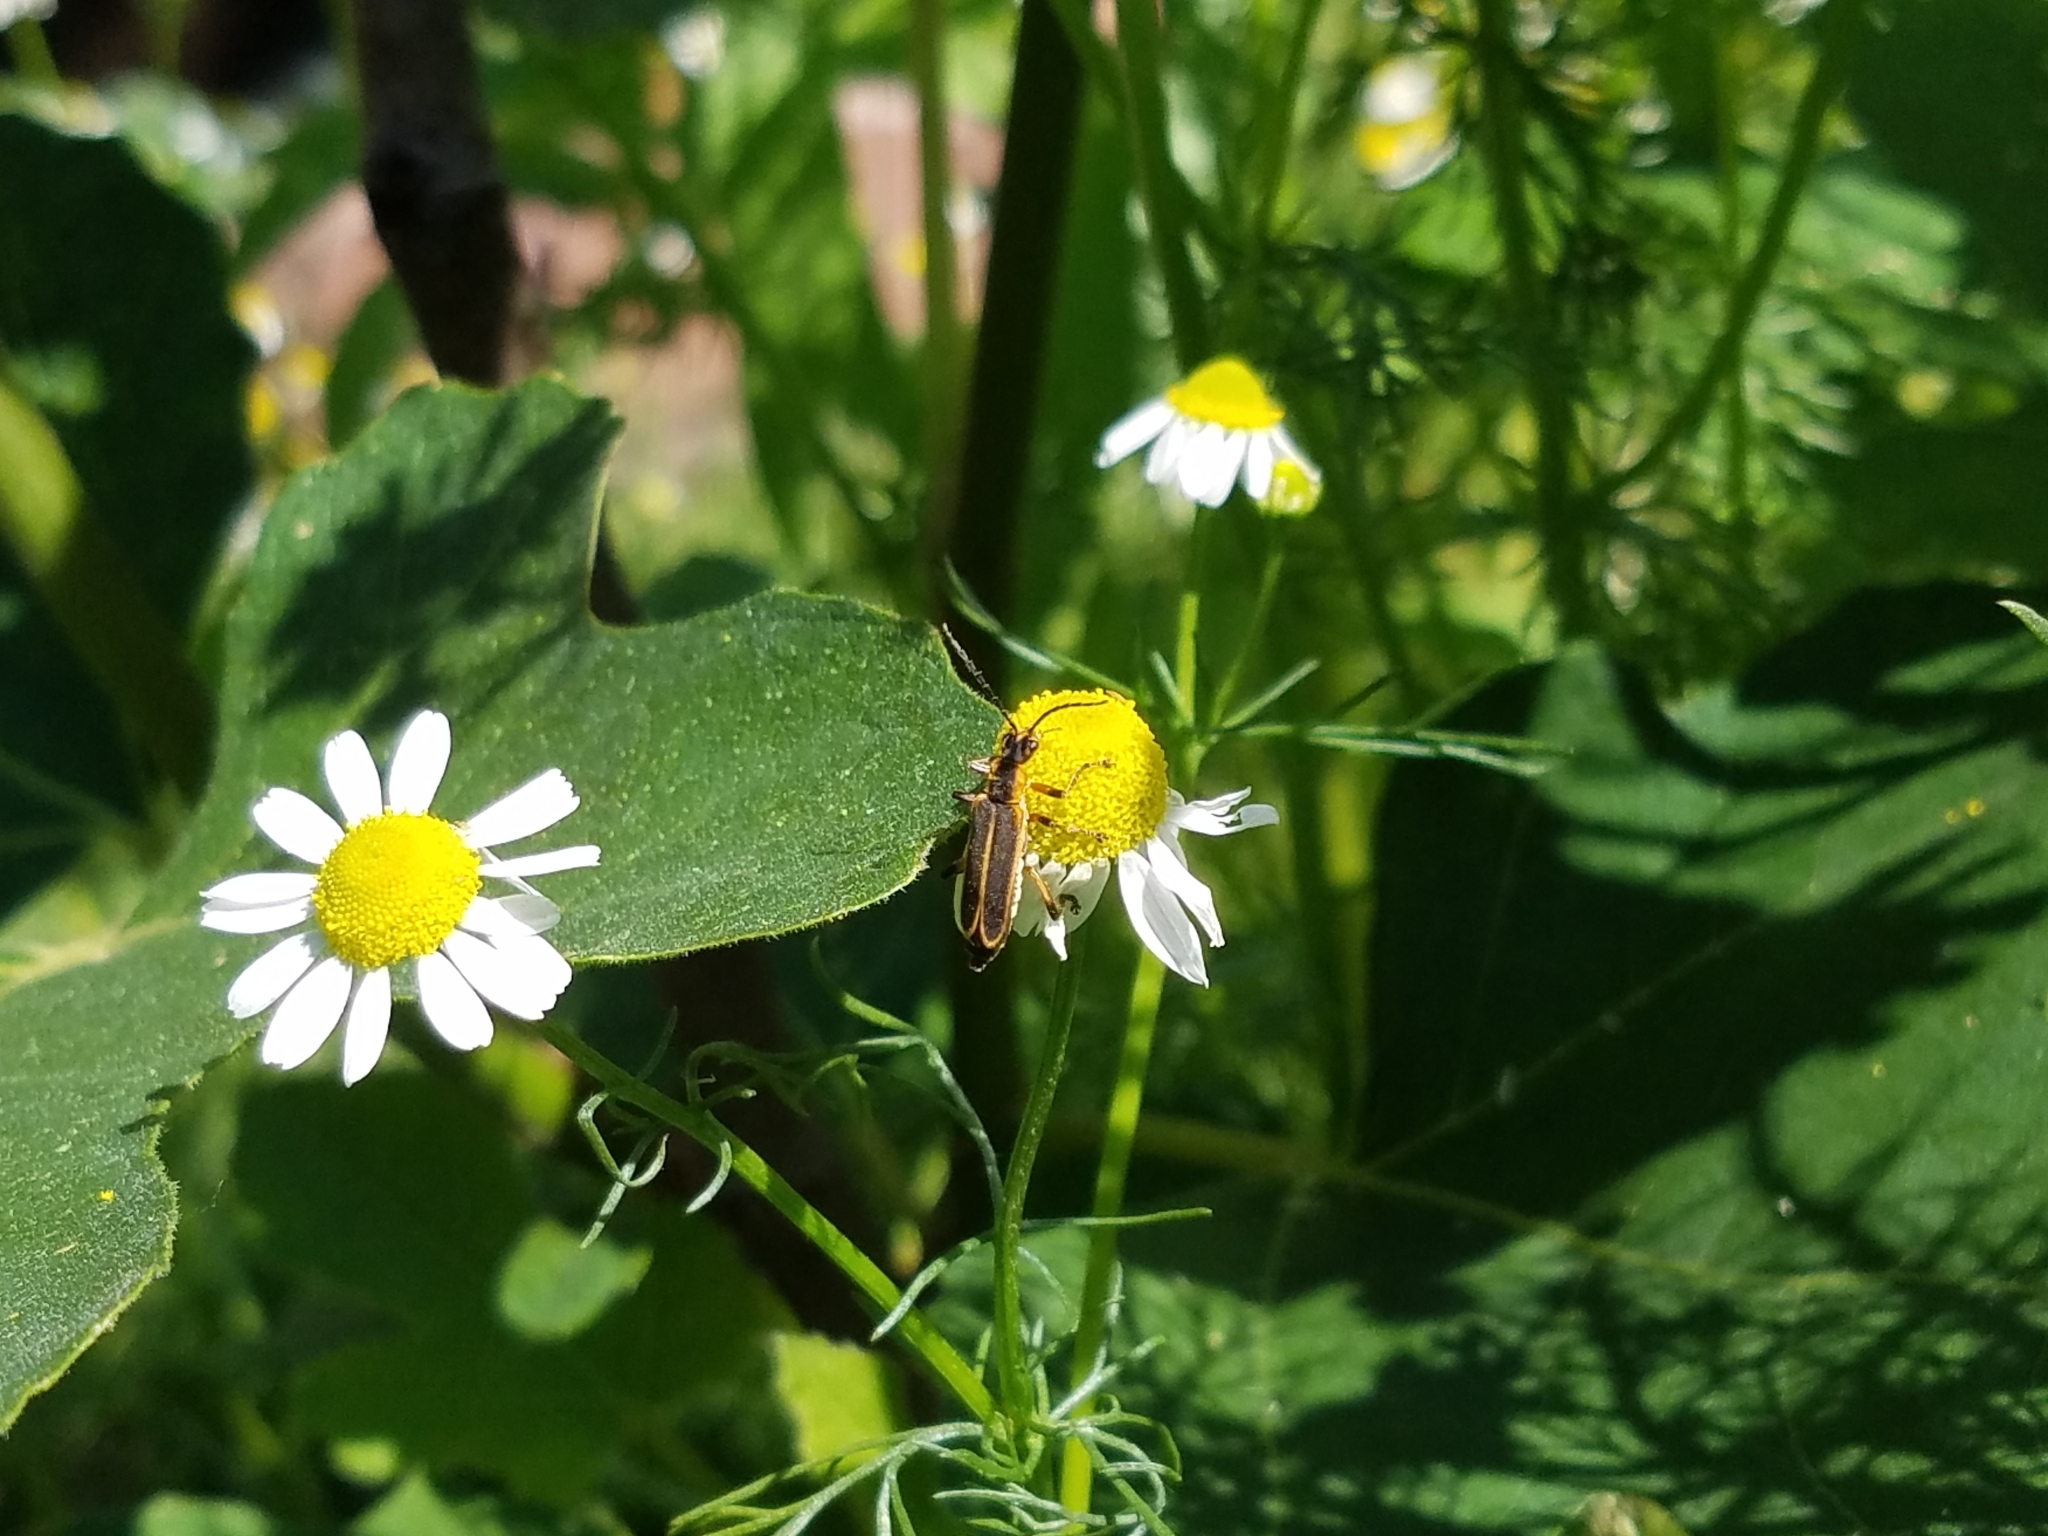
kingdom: Animalia
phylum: Arthropoda
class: Insecta
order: Coleoptera
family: Cantharidae
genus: Chauliognathus
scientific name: Chauliognathus marginatus
